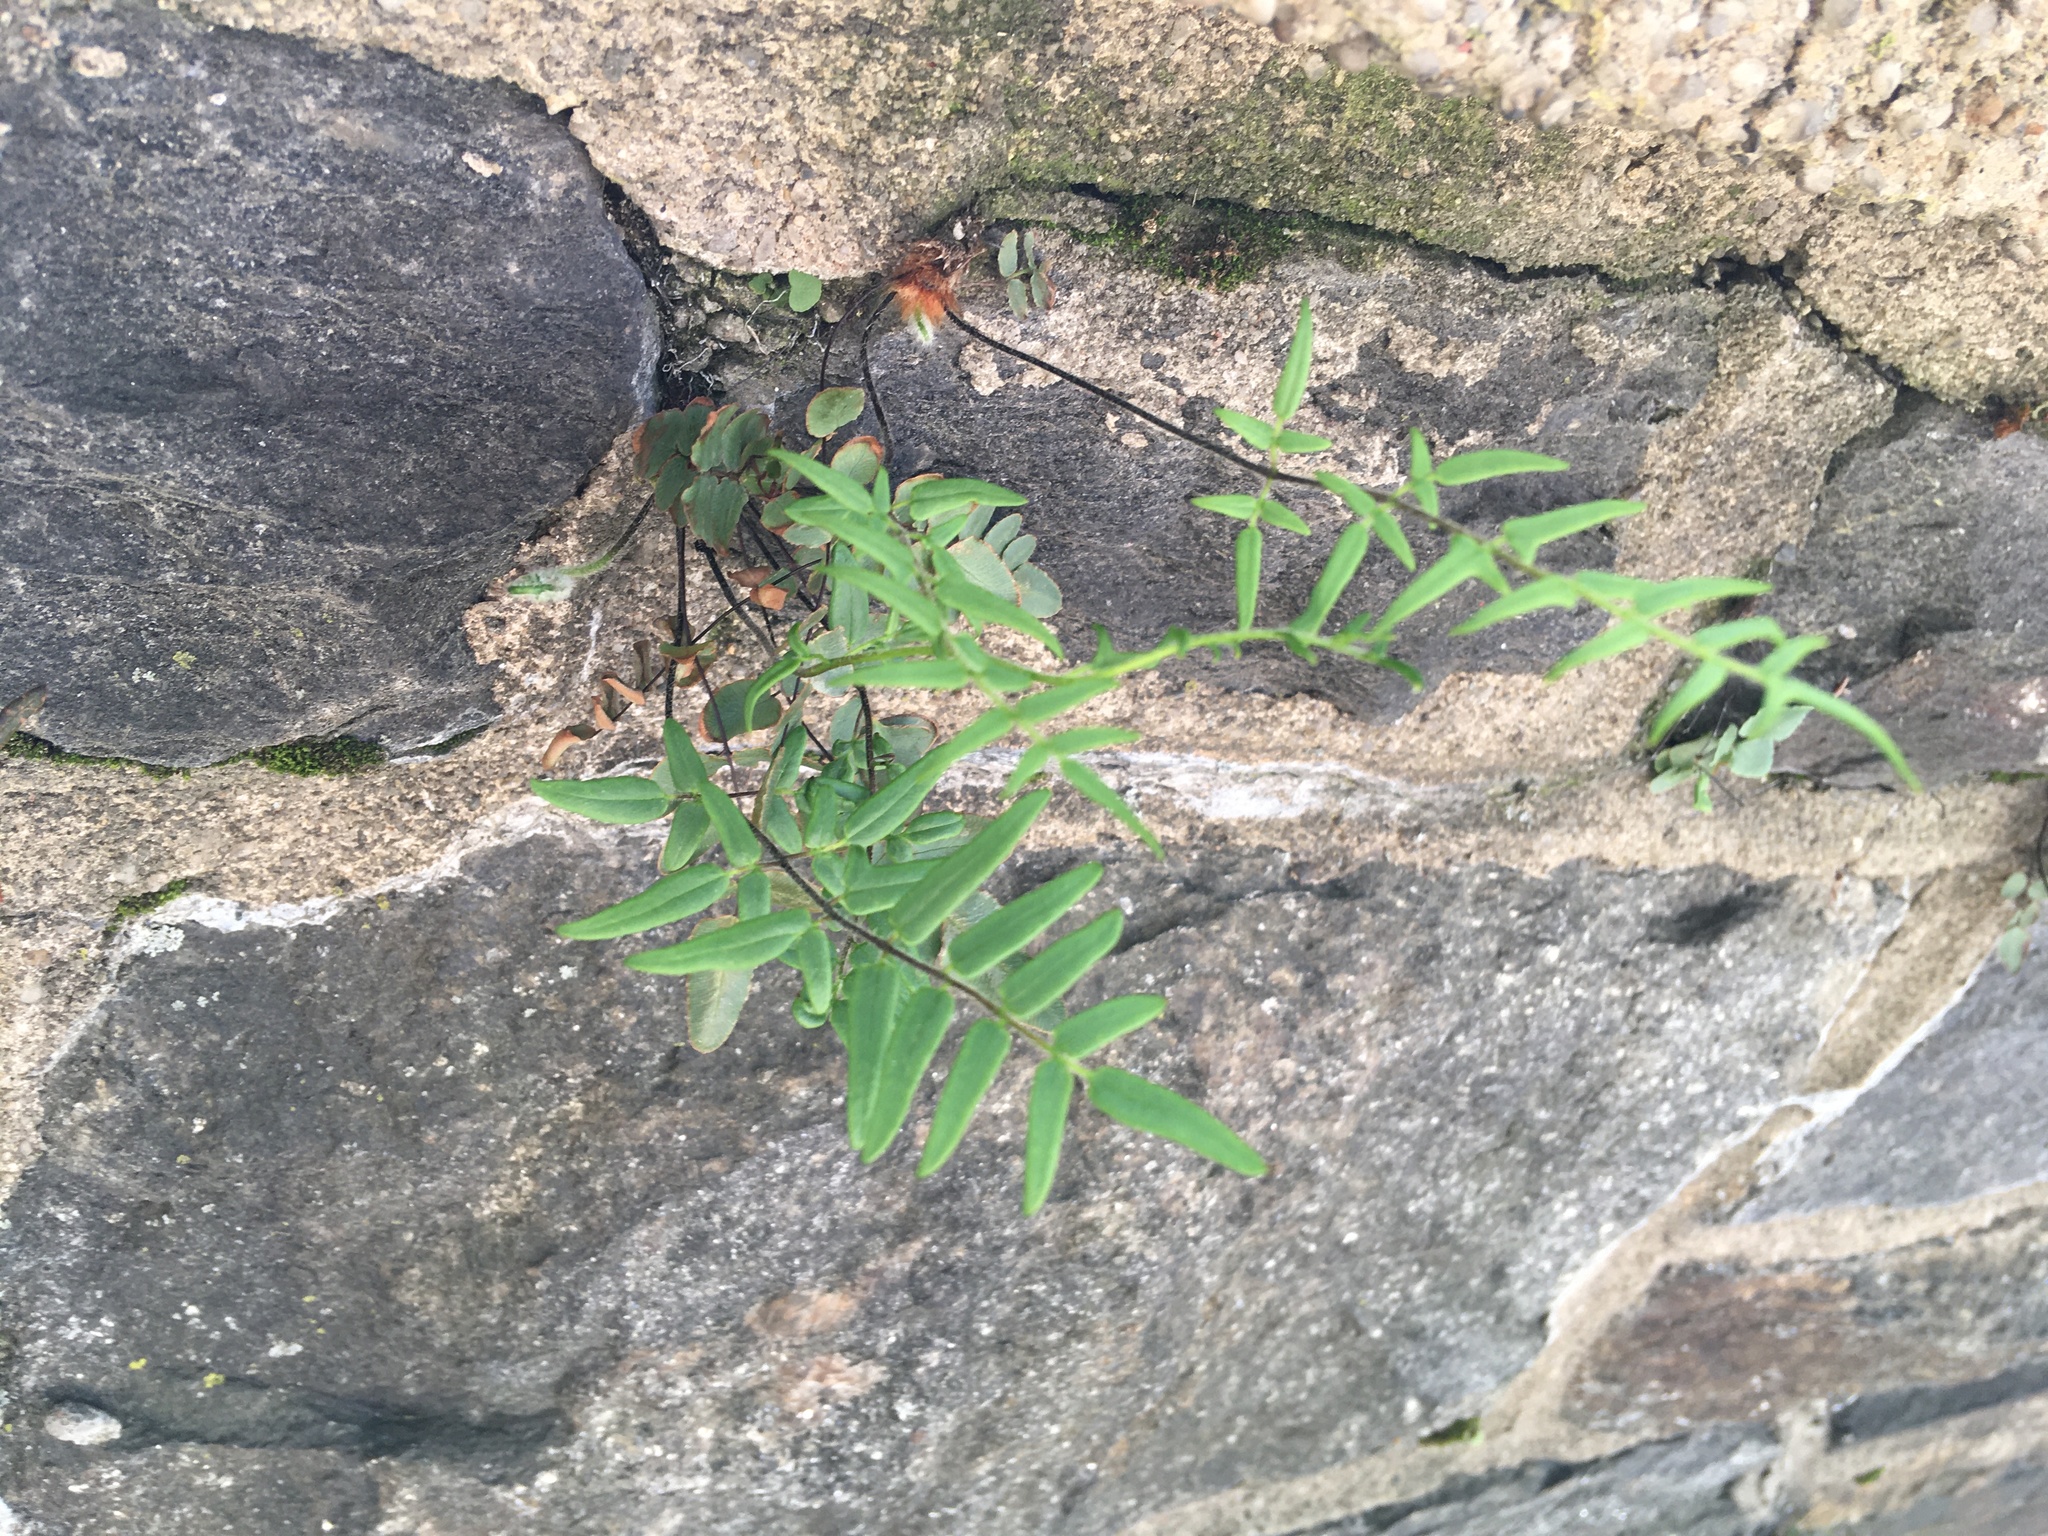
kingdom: Plantae
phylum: Tracheophyta
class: Polypodiopsida
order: Polypodiales
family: Pteridaceae
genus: Pellaea
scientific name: Pellaea atropurpurea
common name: Hairy cliffbrake
